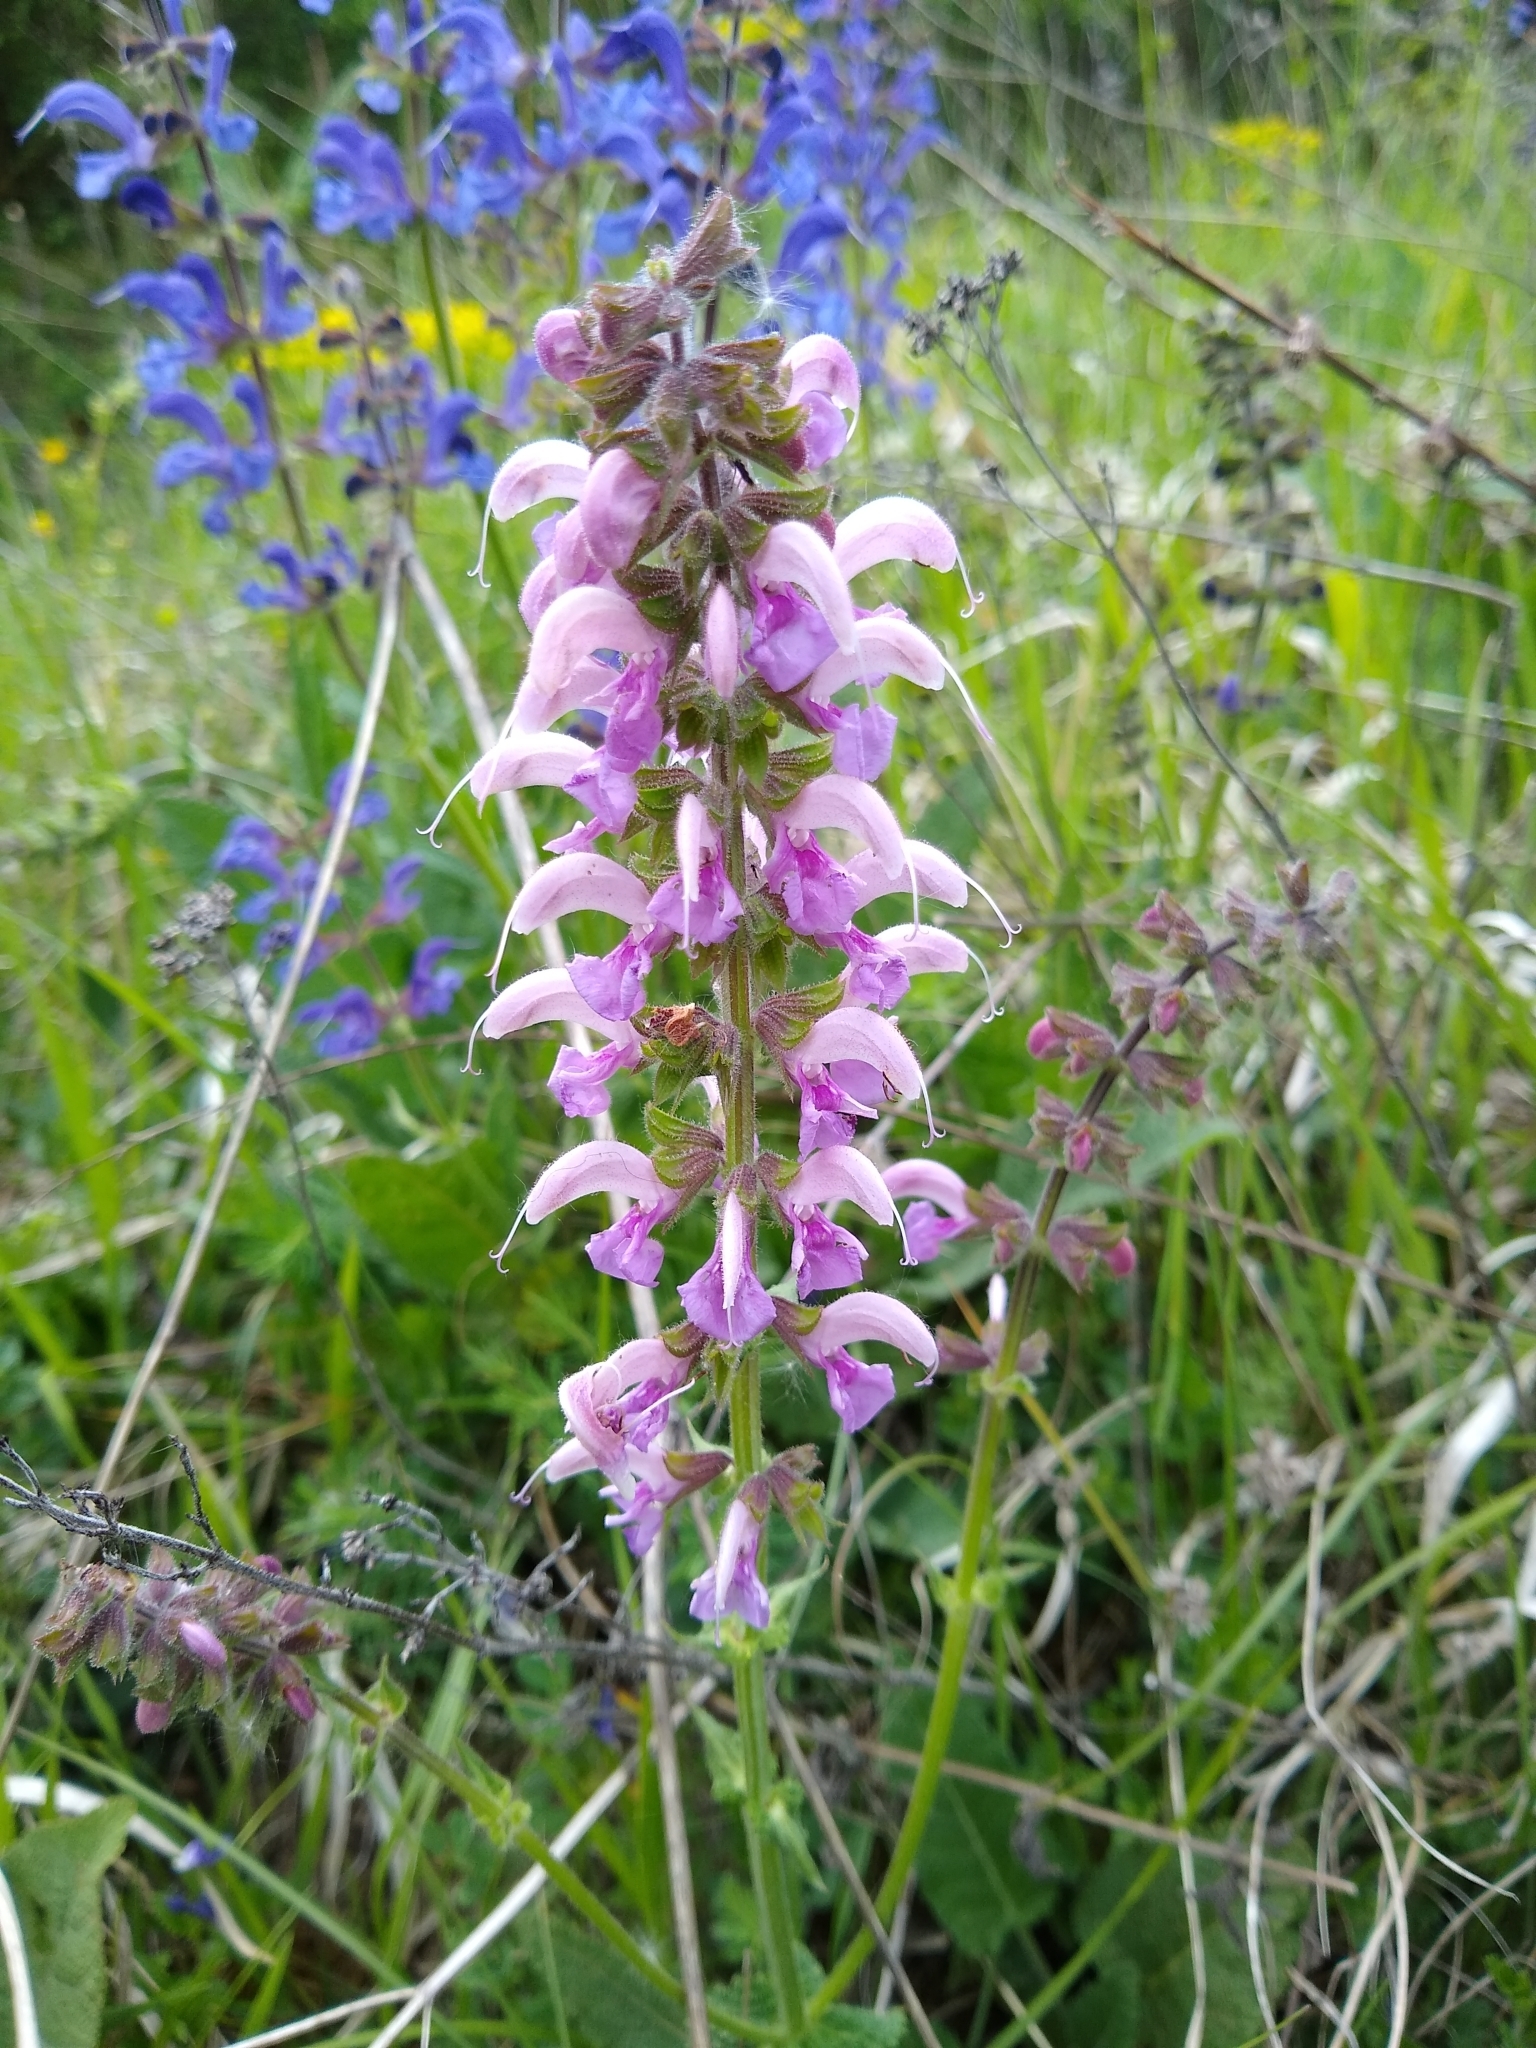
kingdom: Plantae
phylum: Tracheophyta
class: Magnoliopsida
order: Lamiales
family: Lamiaceae
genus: Salvia
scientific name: Salvia pratensis
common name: Meadow sage
